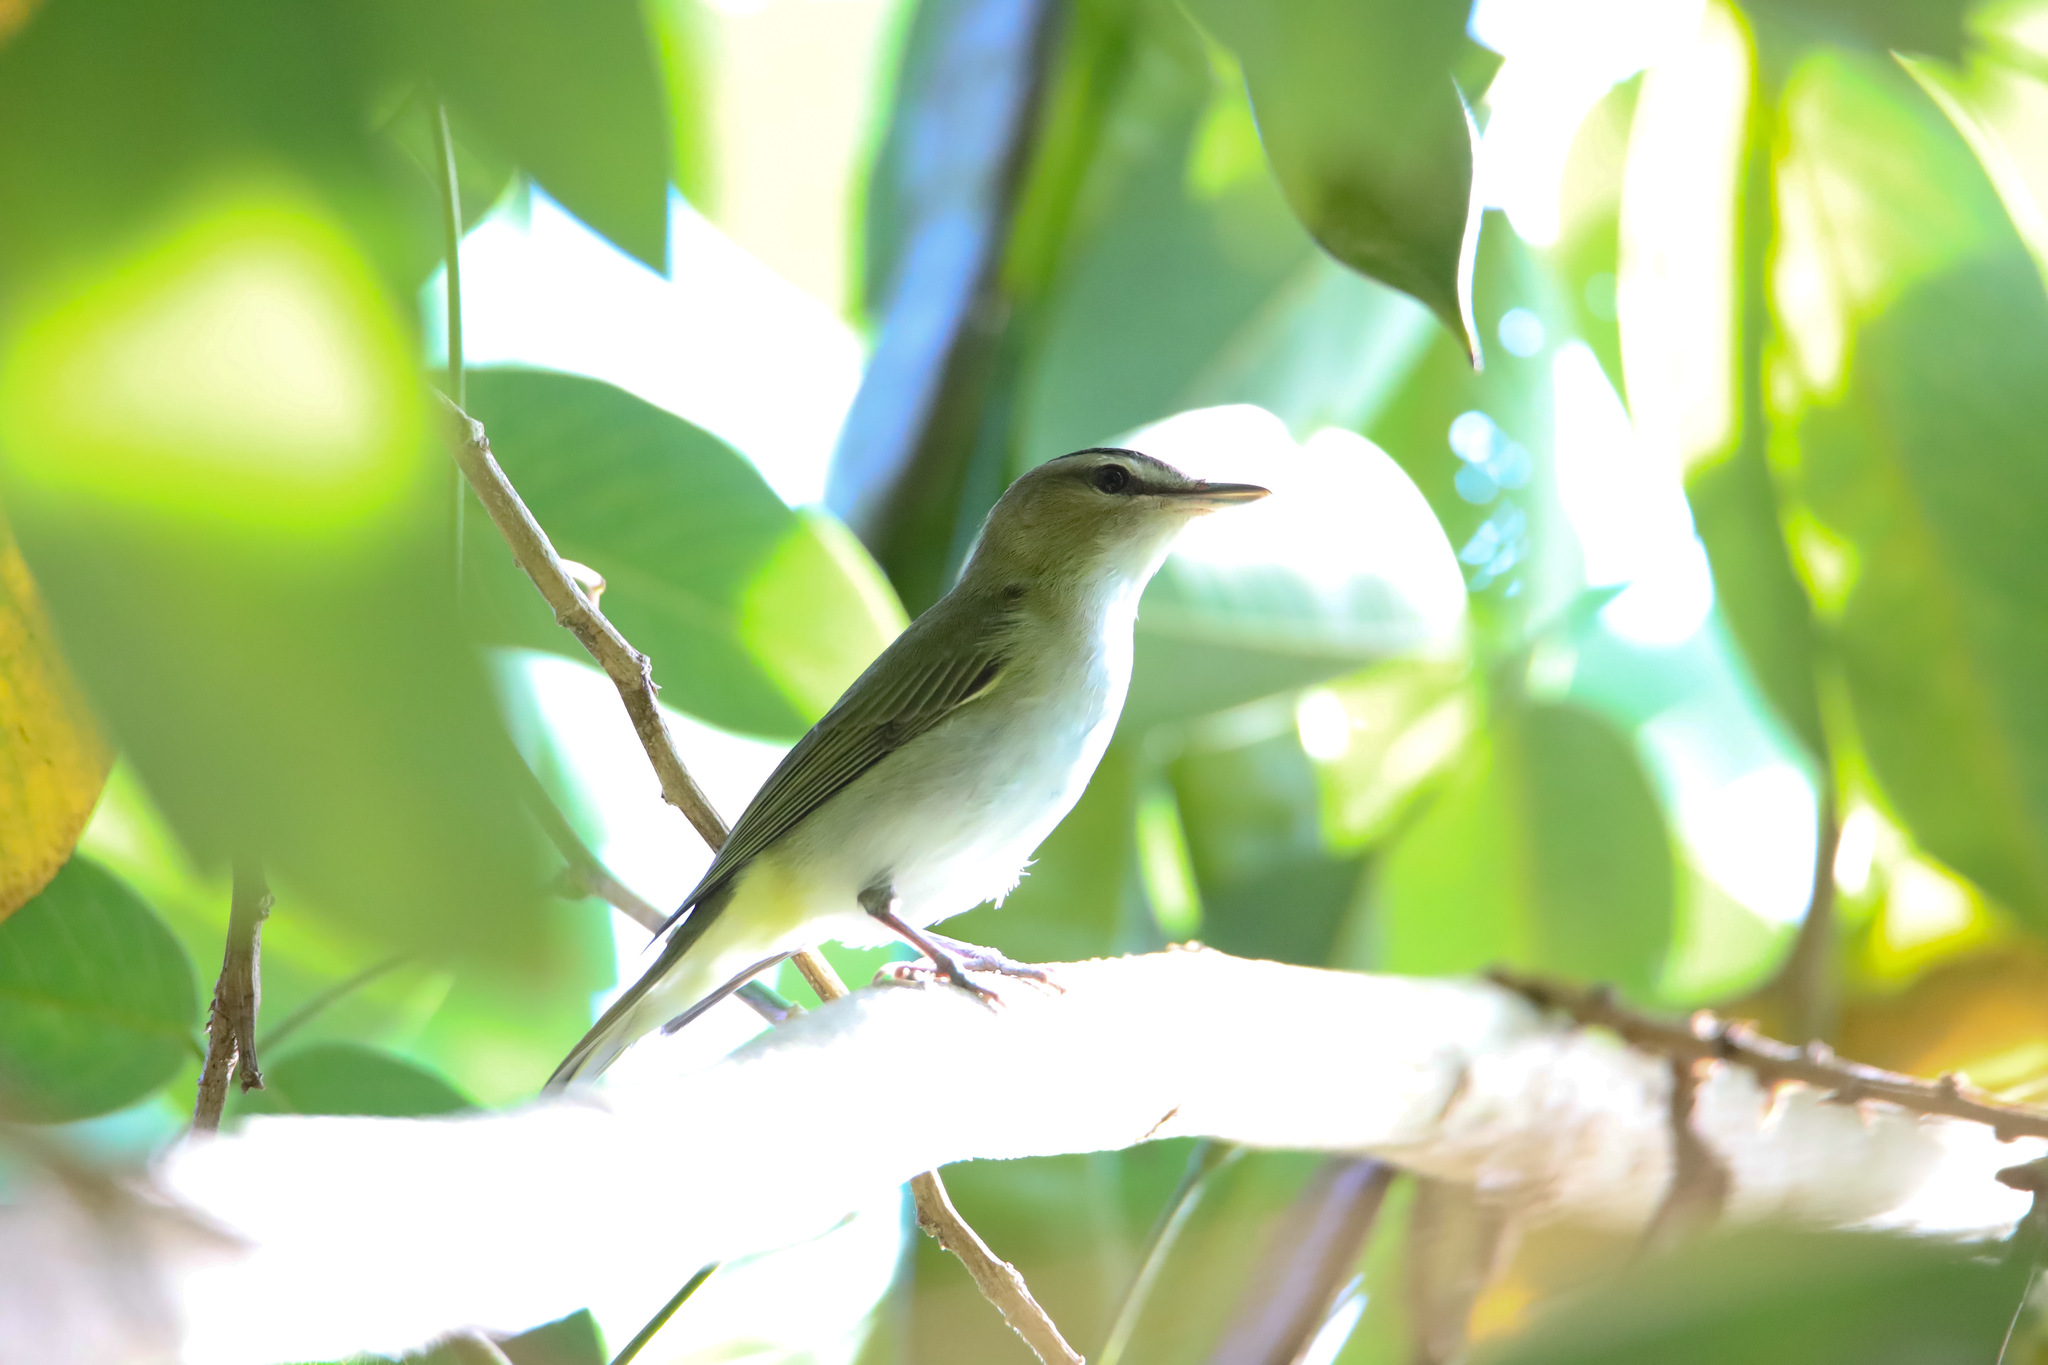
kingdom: Animalia
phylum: Chordata
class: Aves
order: Passeriformes
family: Vireonidae
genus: Vireo
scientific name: Vireo olivaceus
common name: Red-eyed vireo
